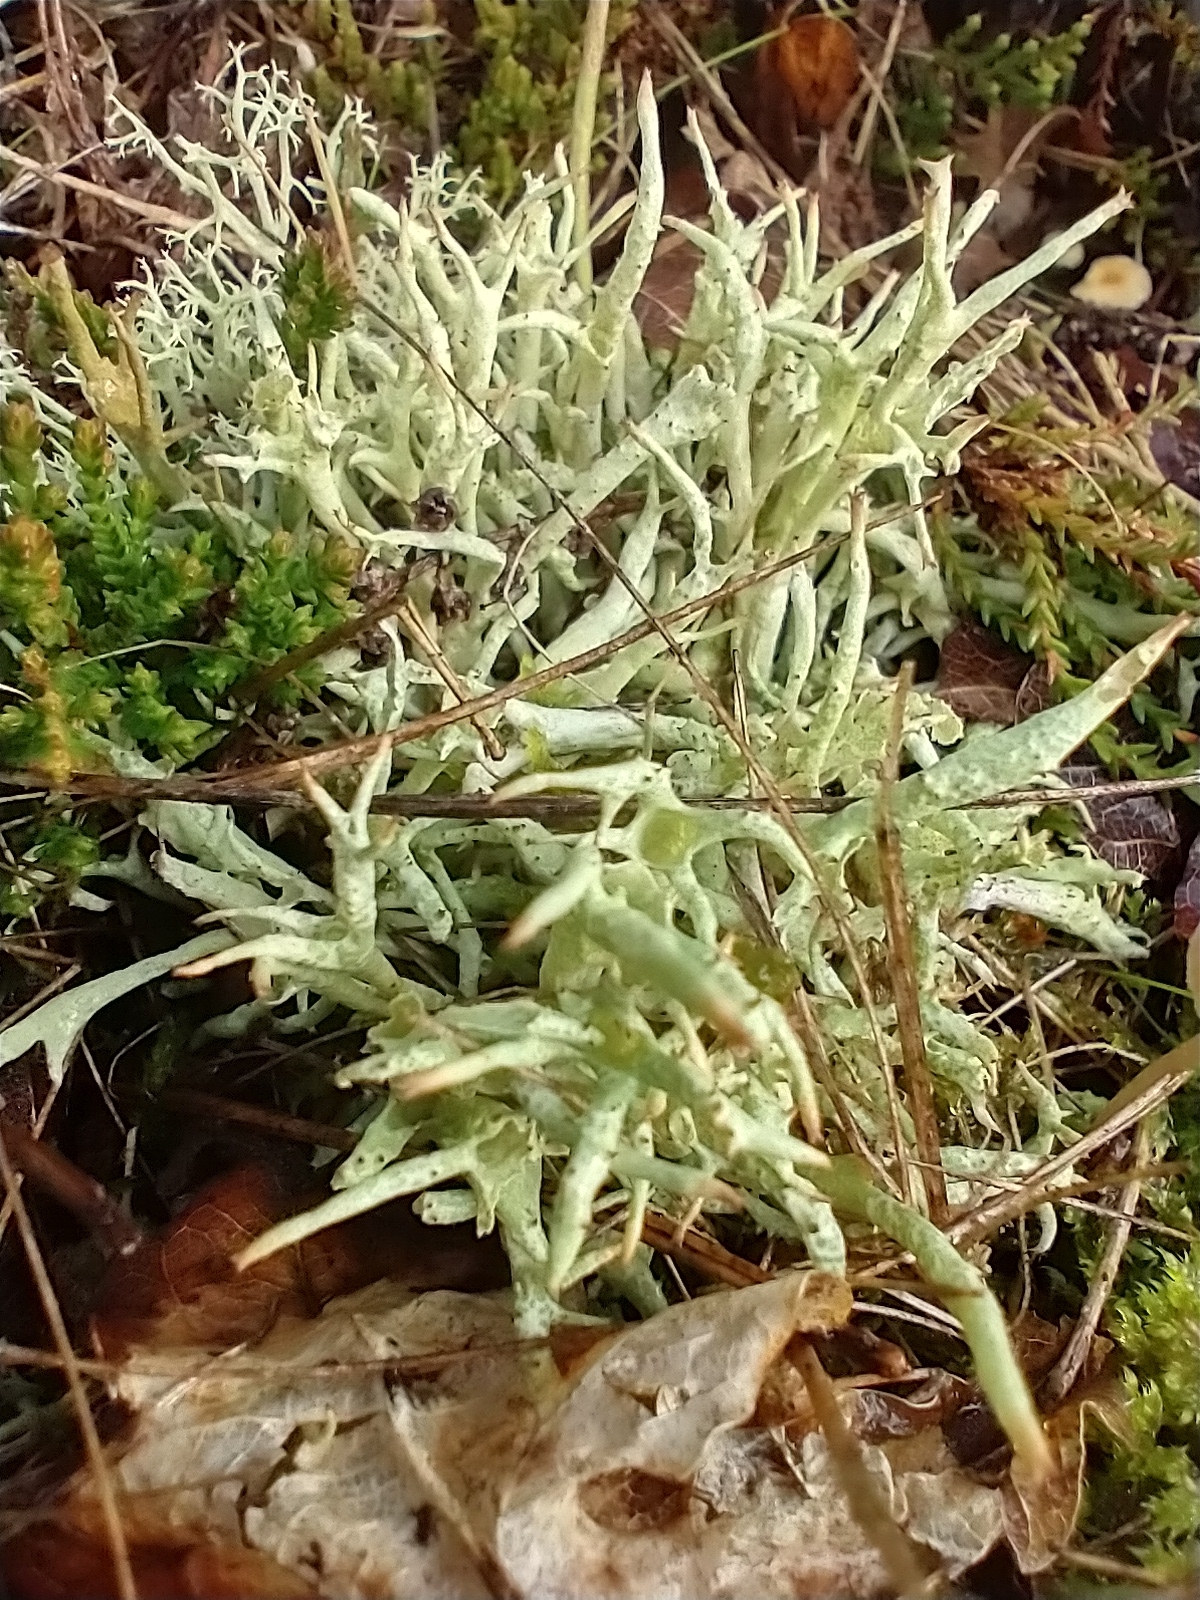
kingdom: Fungi
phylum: Ascomycota
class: Lecanoromycetes
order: Lecanorales
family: Cladoniaceae
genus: Cladonia
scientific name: Cladonia uncialis
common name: Thorn lichen
